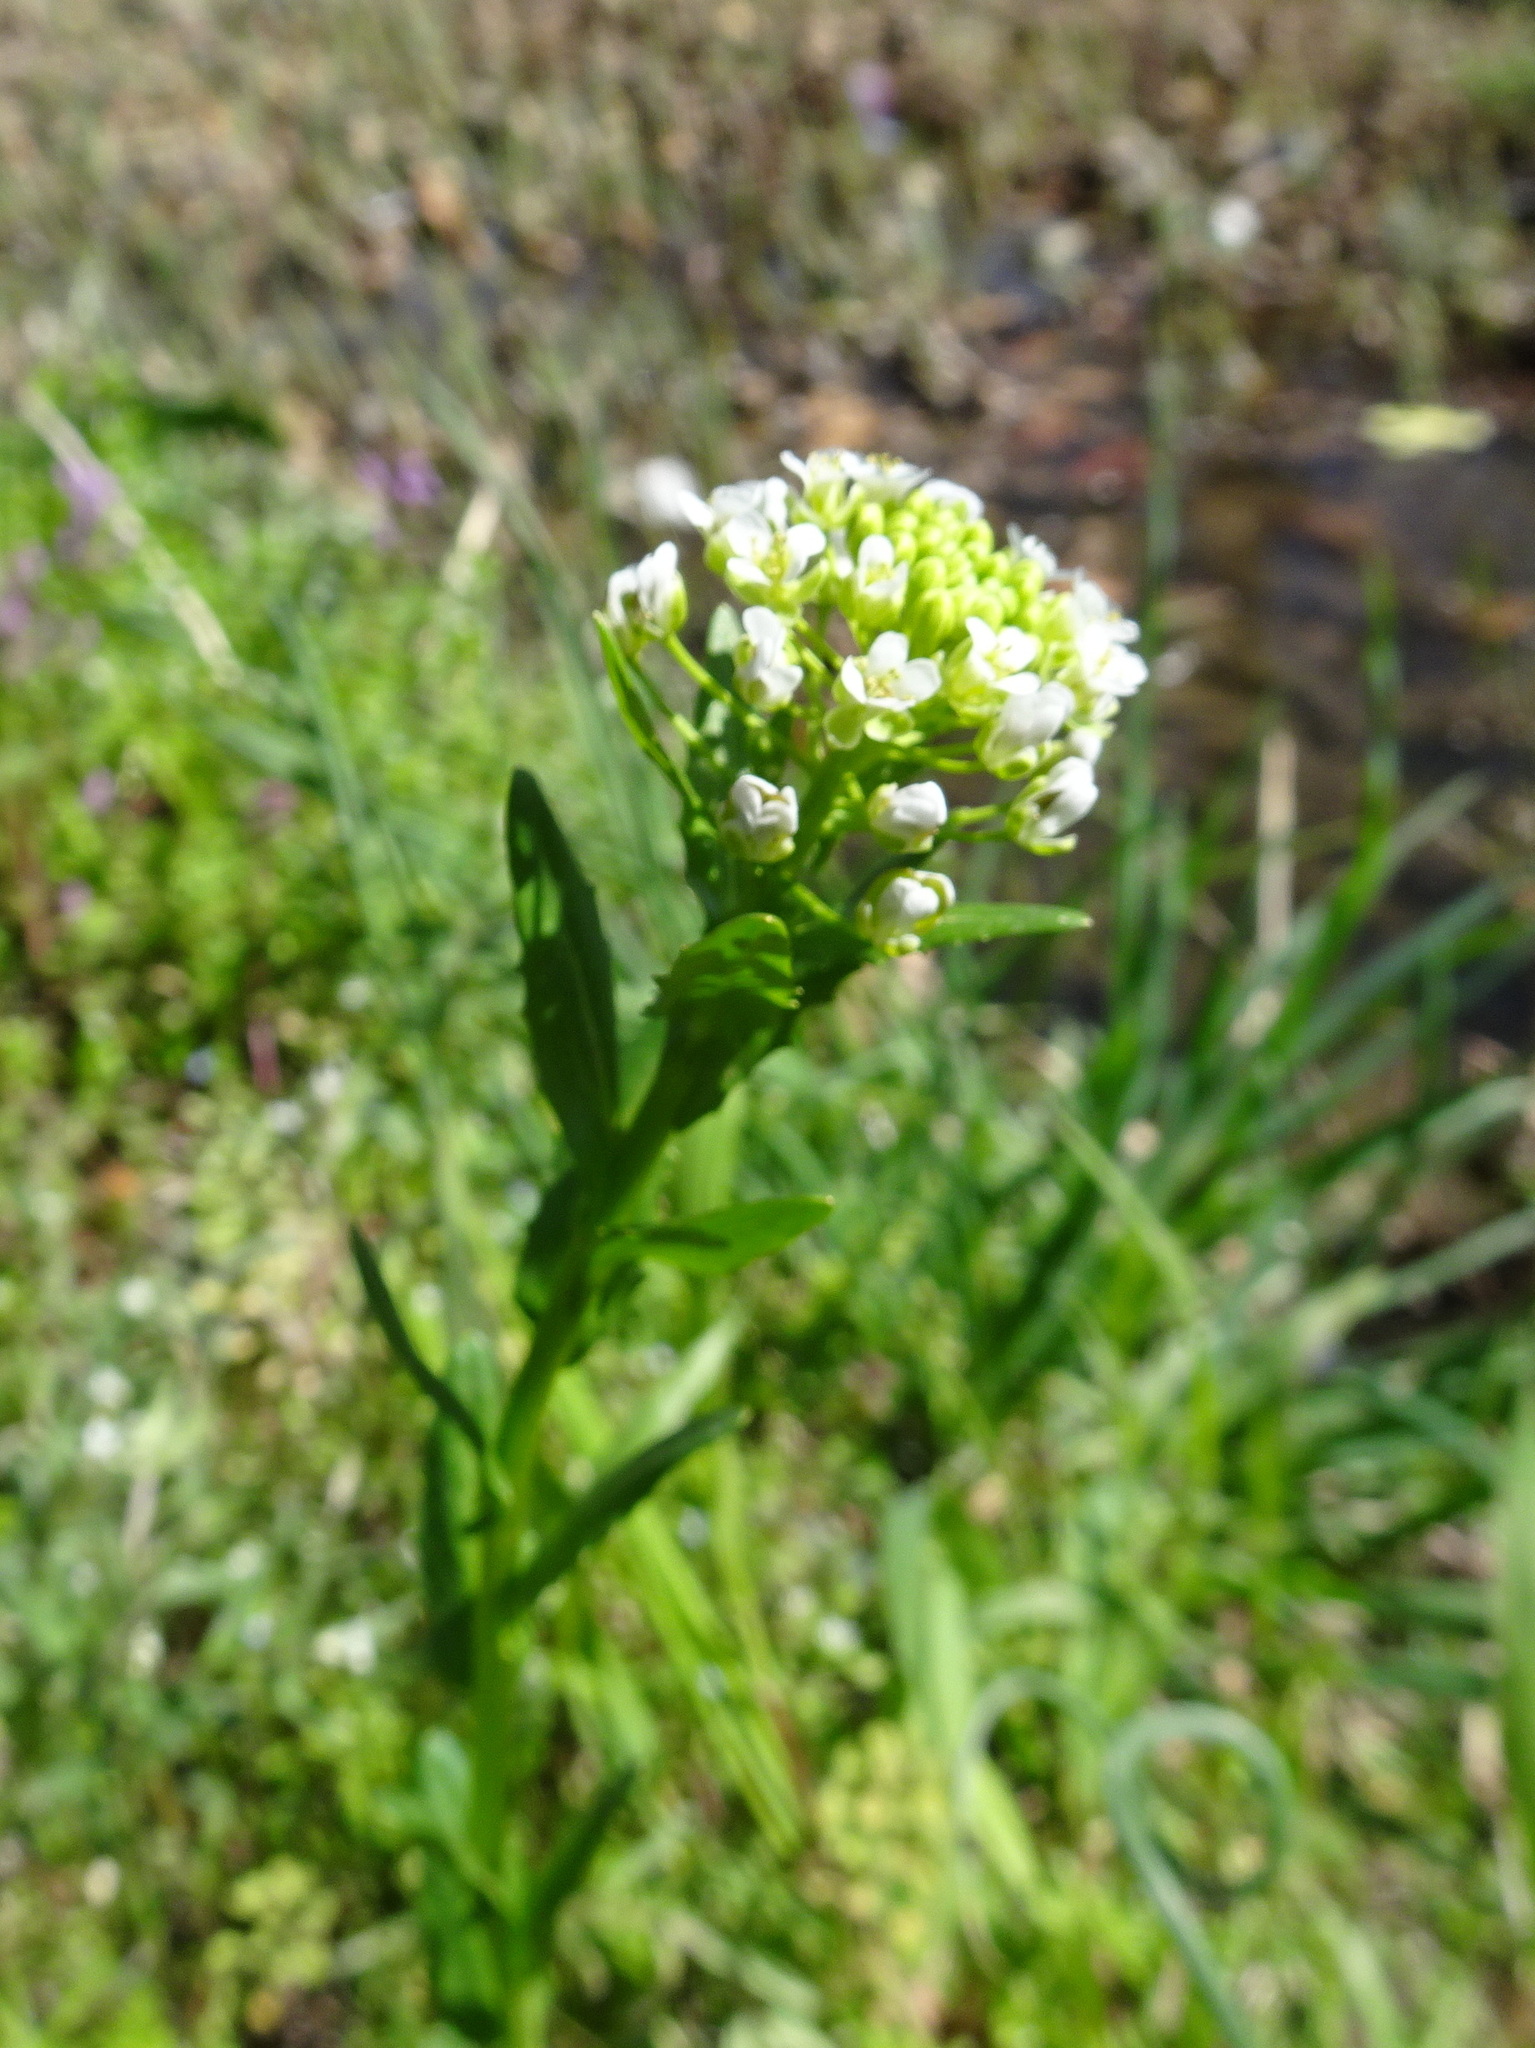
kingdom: Plantae
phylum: Tracheophyta
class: Magnoliopsida
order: Brassicales
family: Brassicaceae
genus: Thlaspi
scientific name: Thlaspi arvense
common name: Field pennycress
